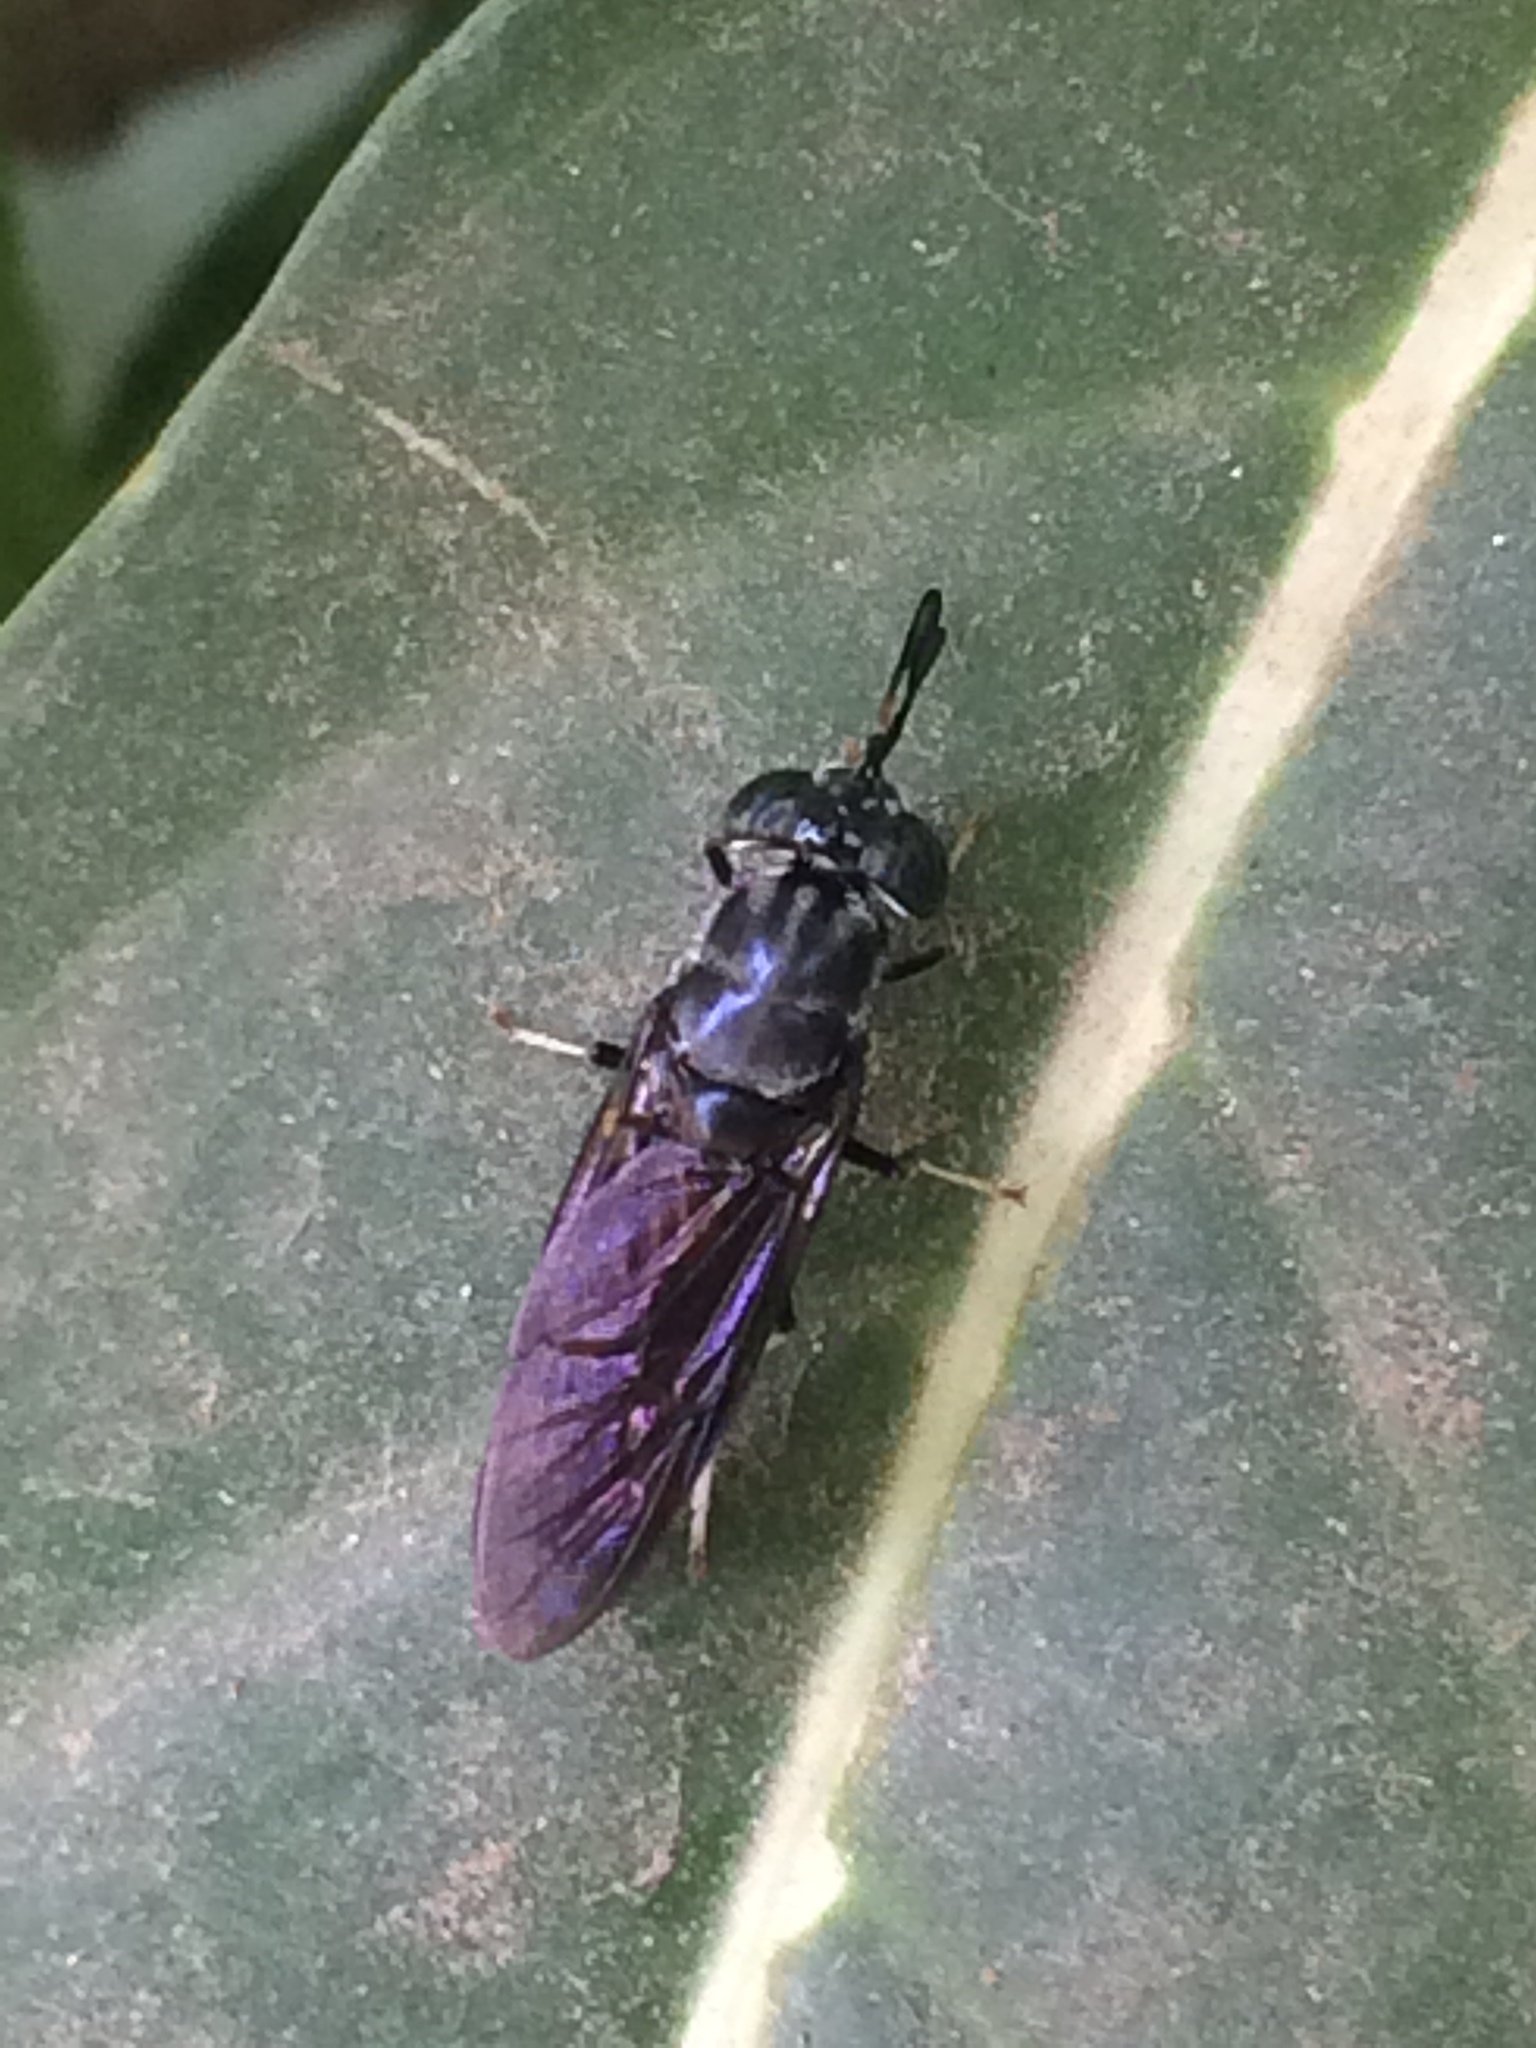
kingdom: Animalia
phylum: Arthropoda
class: Insecta
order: Diptera
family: Stratiomyidae
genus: Hermetia
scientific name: Hermetia illucens
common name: Black soldier fly
